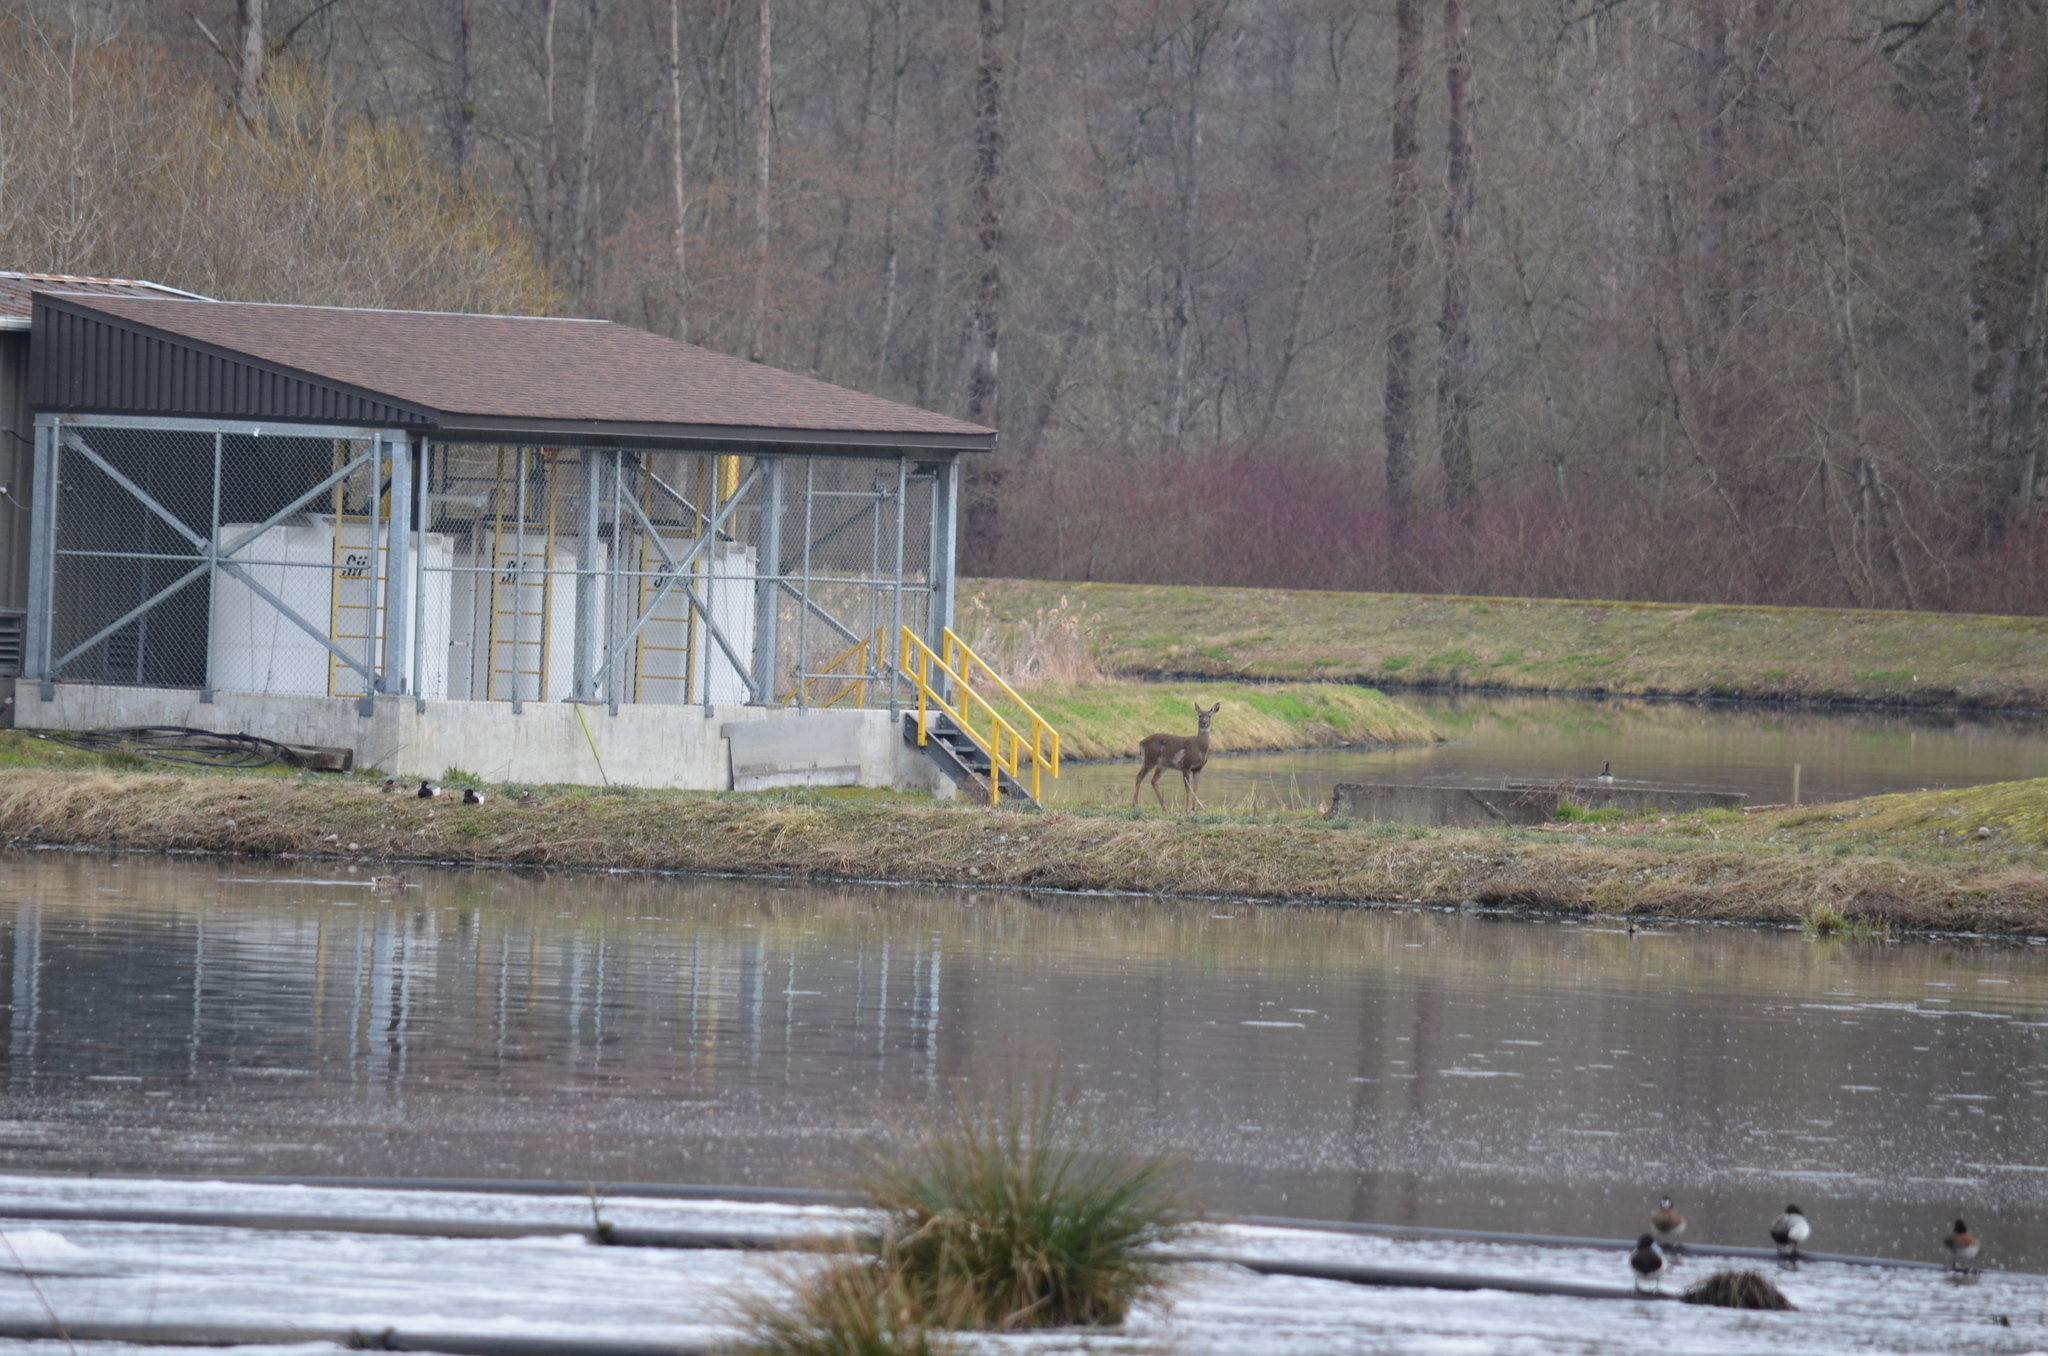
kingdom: Animalia
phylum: Chordata
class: Mammalia
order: Artiodactyla
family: Cervidae
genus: Odocoileus
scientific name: Odocoileus hemionus
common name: Mule deer
